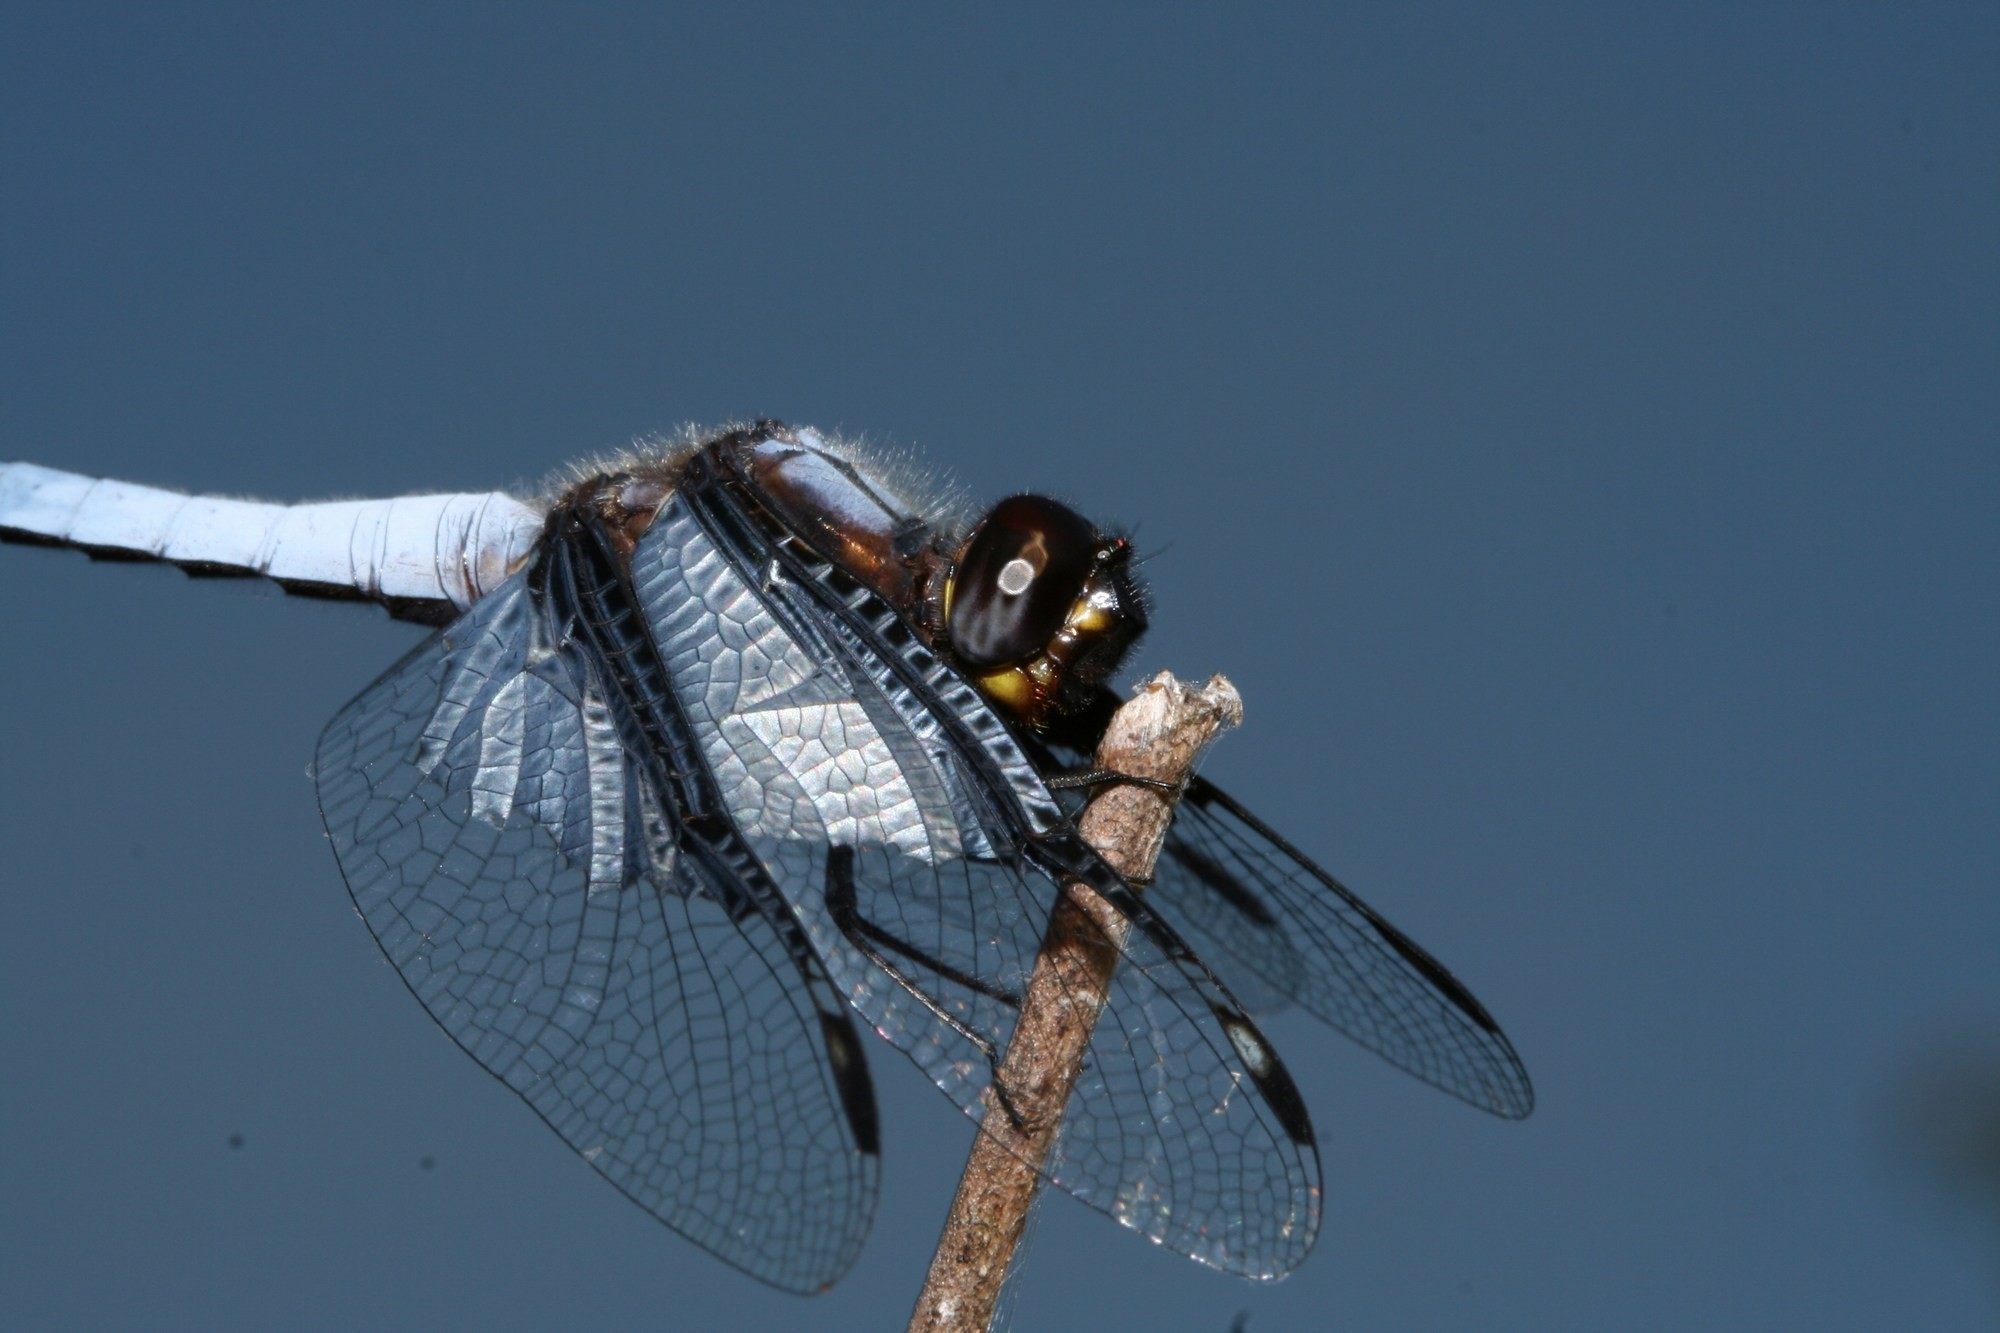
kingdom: Animalia
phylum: Arthropoda
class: Insecta
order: Odonata
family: Libellulidae
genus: Palpopleura
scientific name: Palpopleura vestita
